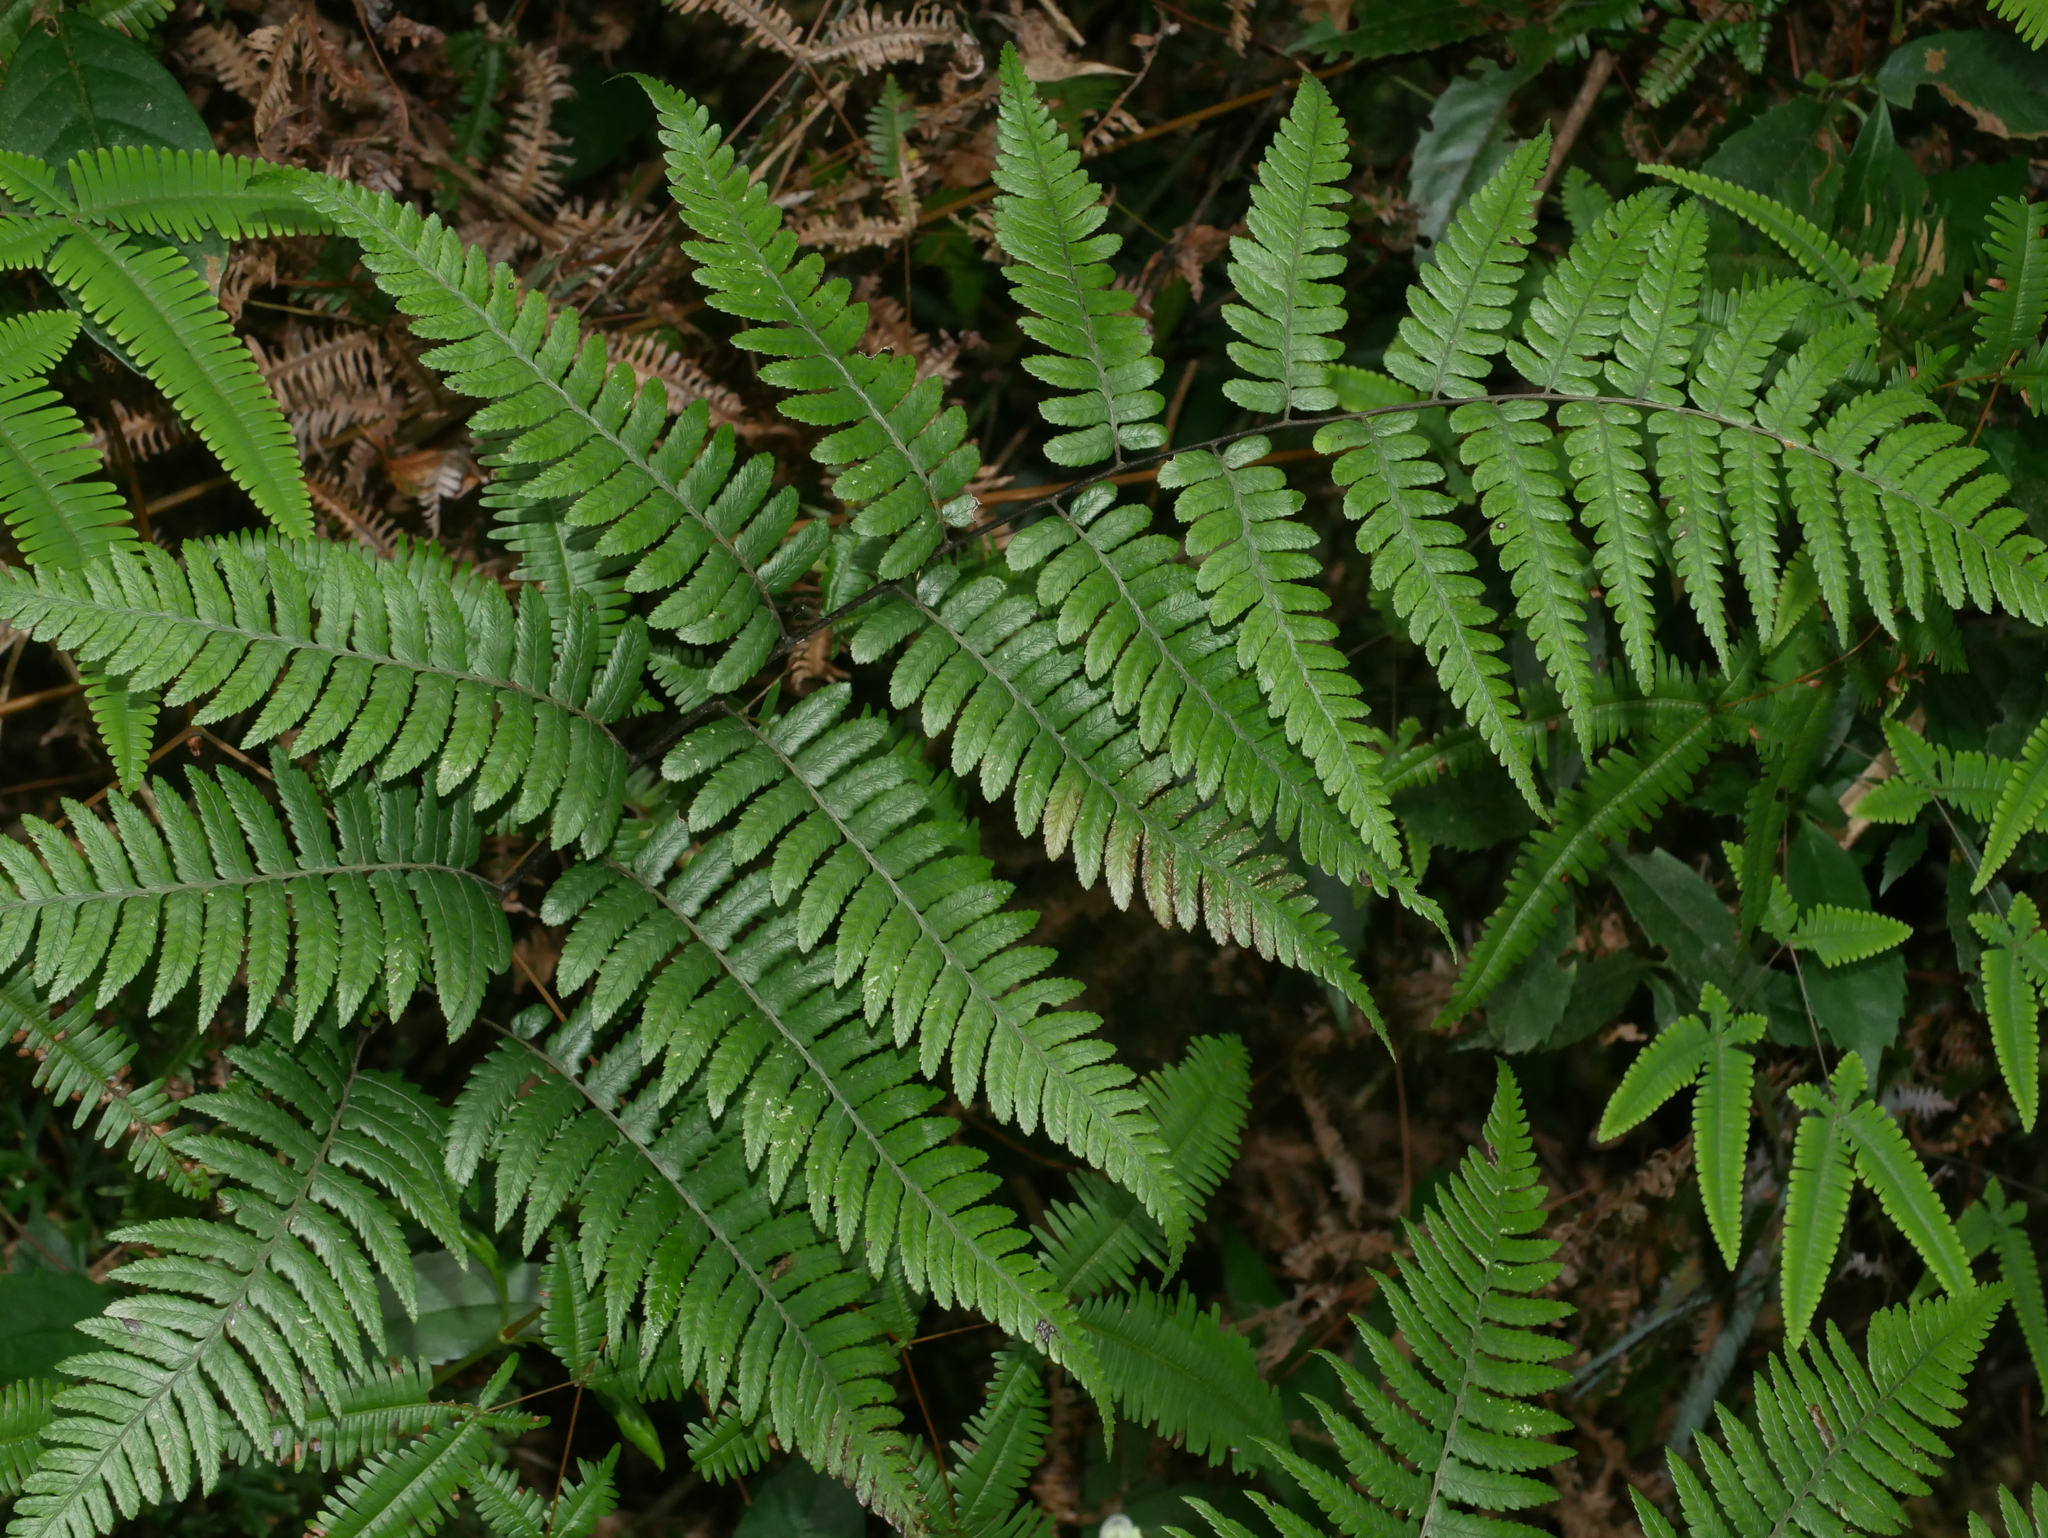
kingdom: Plantae
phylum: Tracheophyta
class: Polypodiopsida
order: Polypodiales
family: Athyriaceae
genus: Diplazium
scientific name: Diplazium petri
